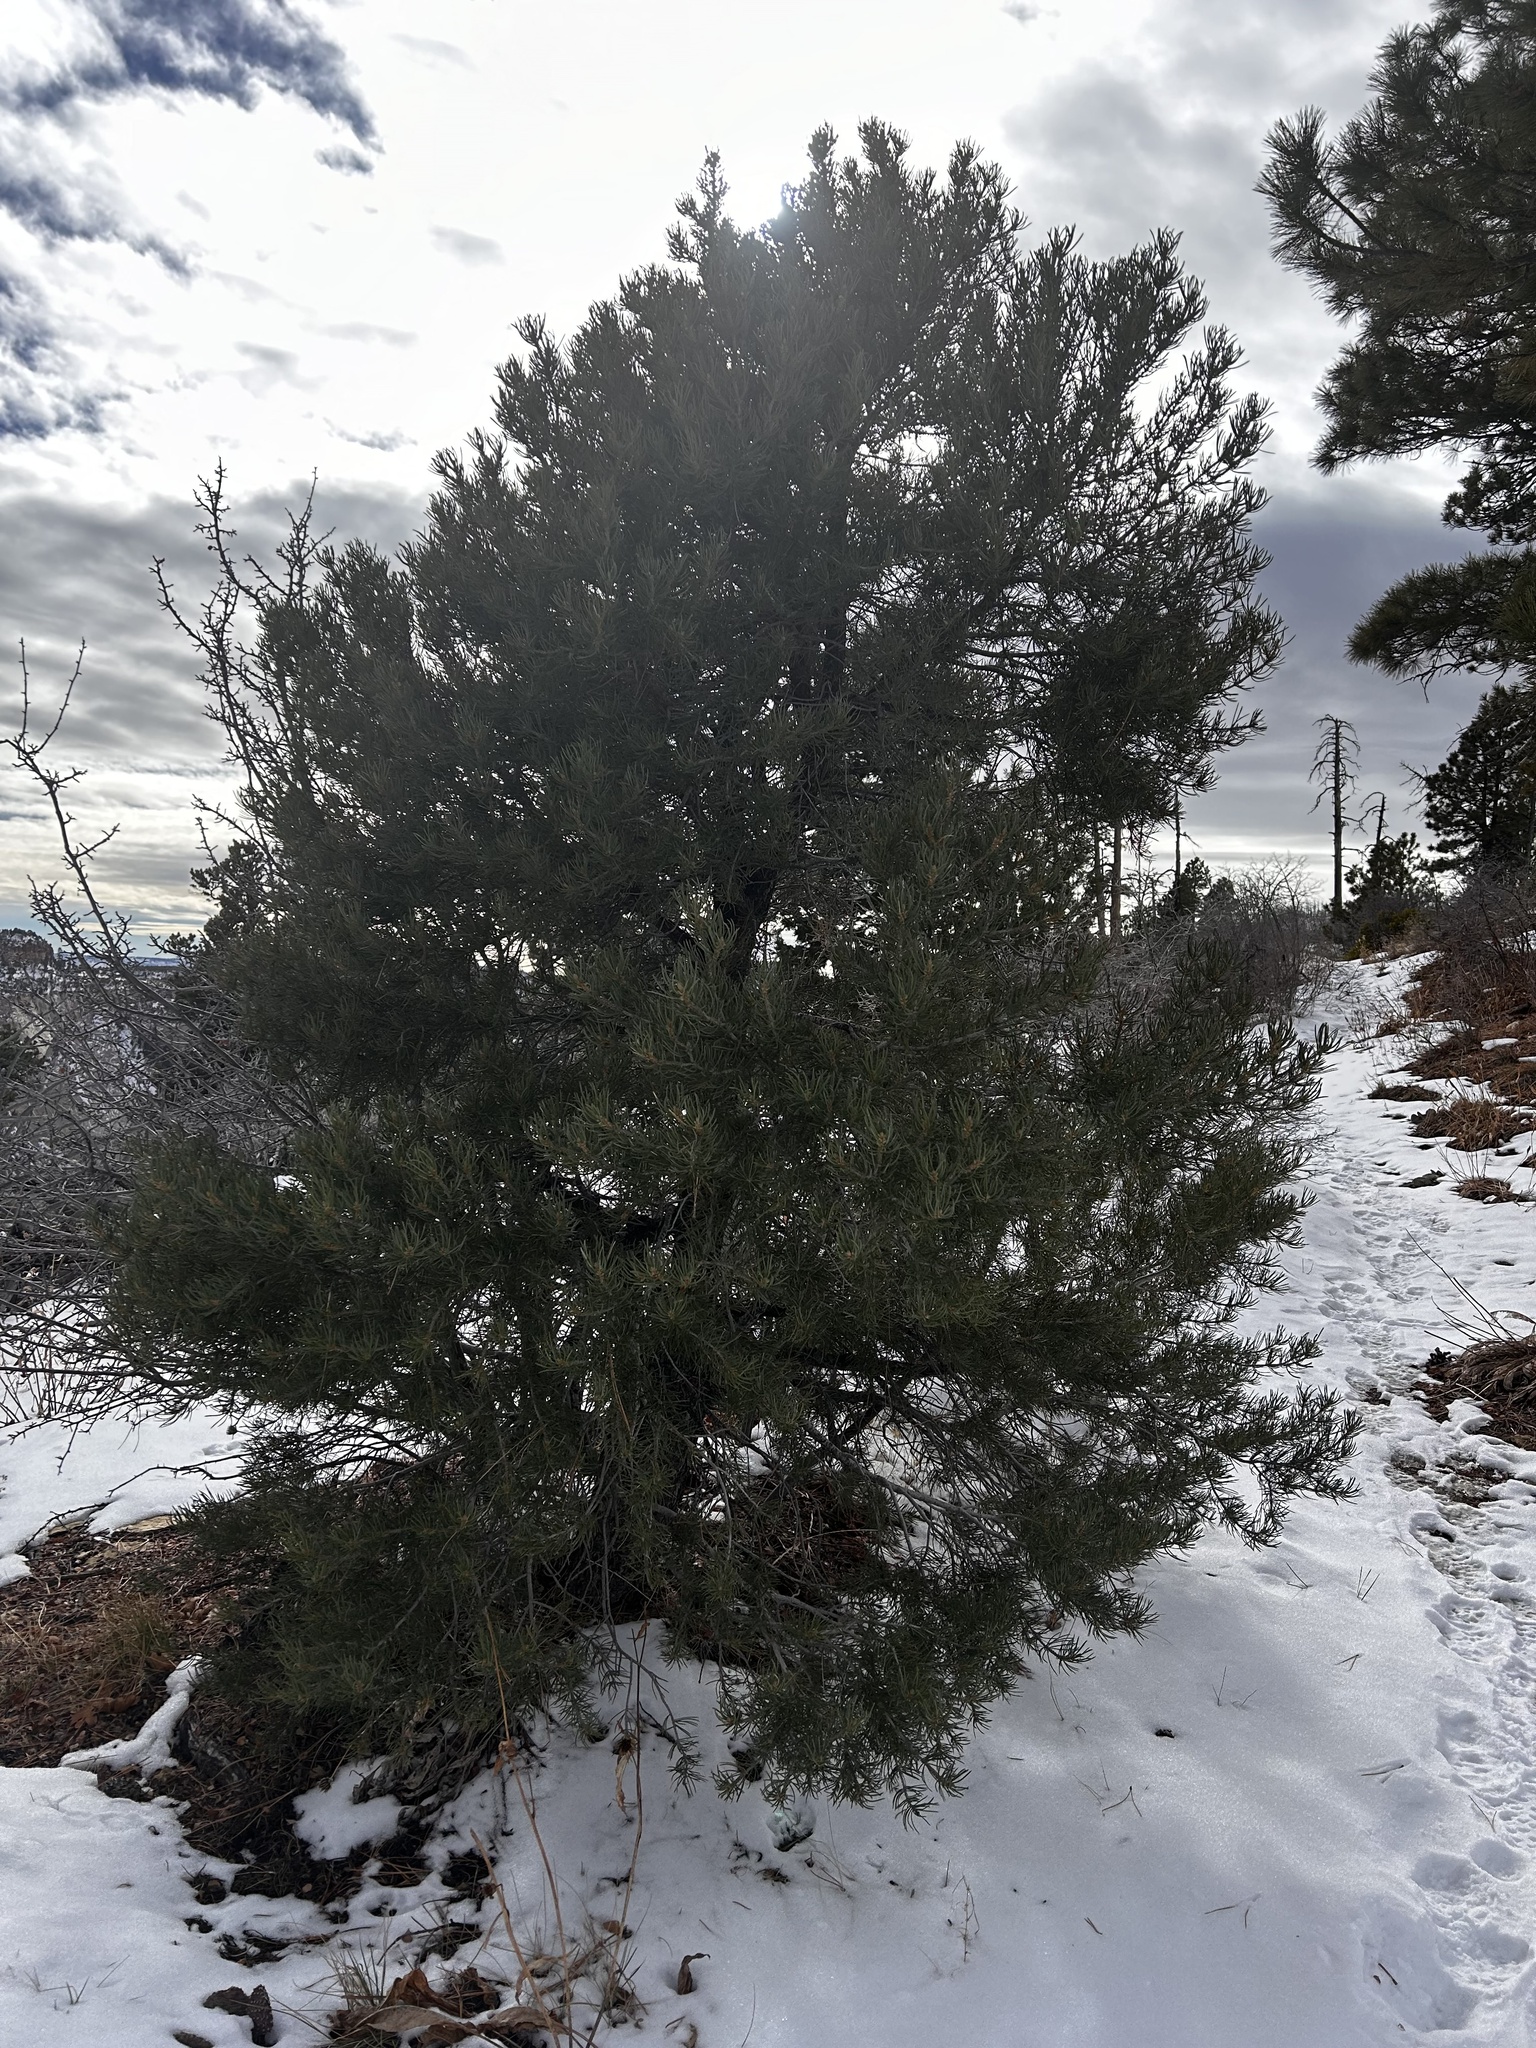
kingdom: Plantae
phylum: Tracheophyta
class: Pinopsida
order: Pinales
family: Pinaceae
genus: Pinus
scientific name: Pinus edulis
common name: Colorado pinyon
